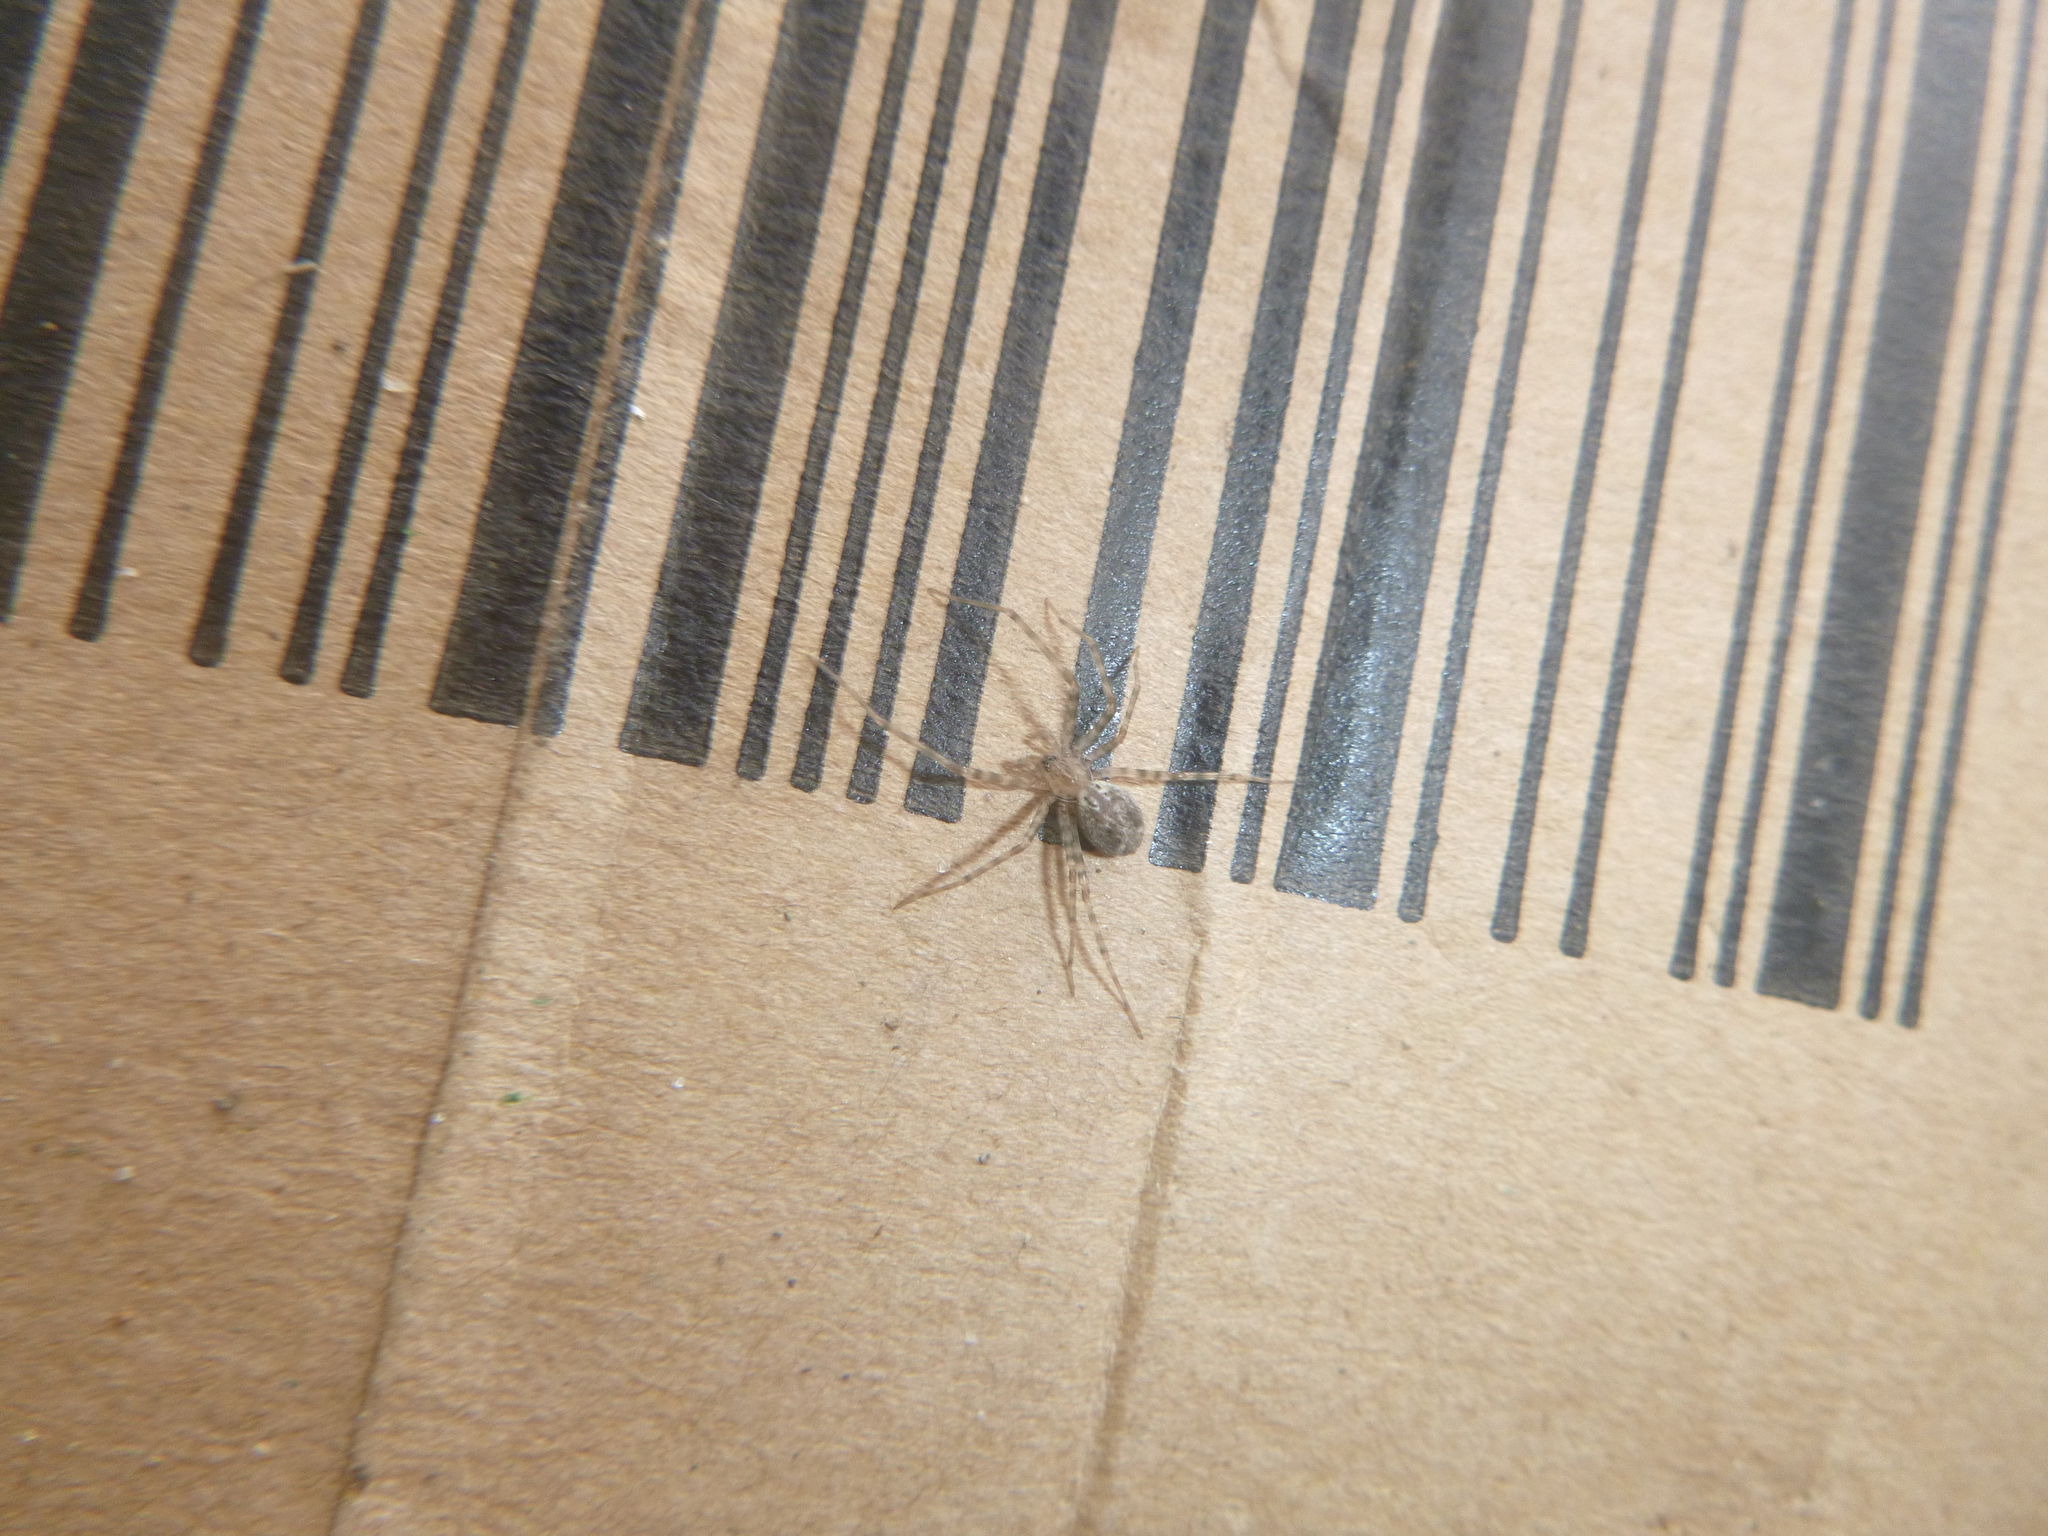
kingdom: Animalia
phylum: Arthropoda
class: Arachnida
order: Araneae
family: Stiphidiidae
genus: Stiphidion
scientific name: Stiphidion facetum
